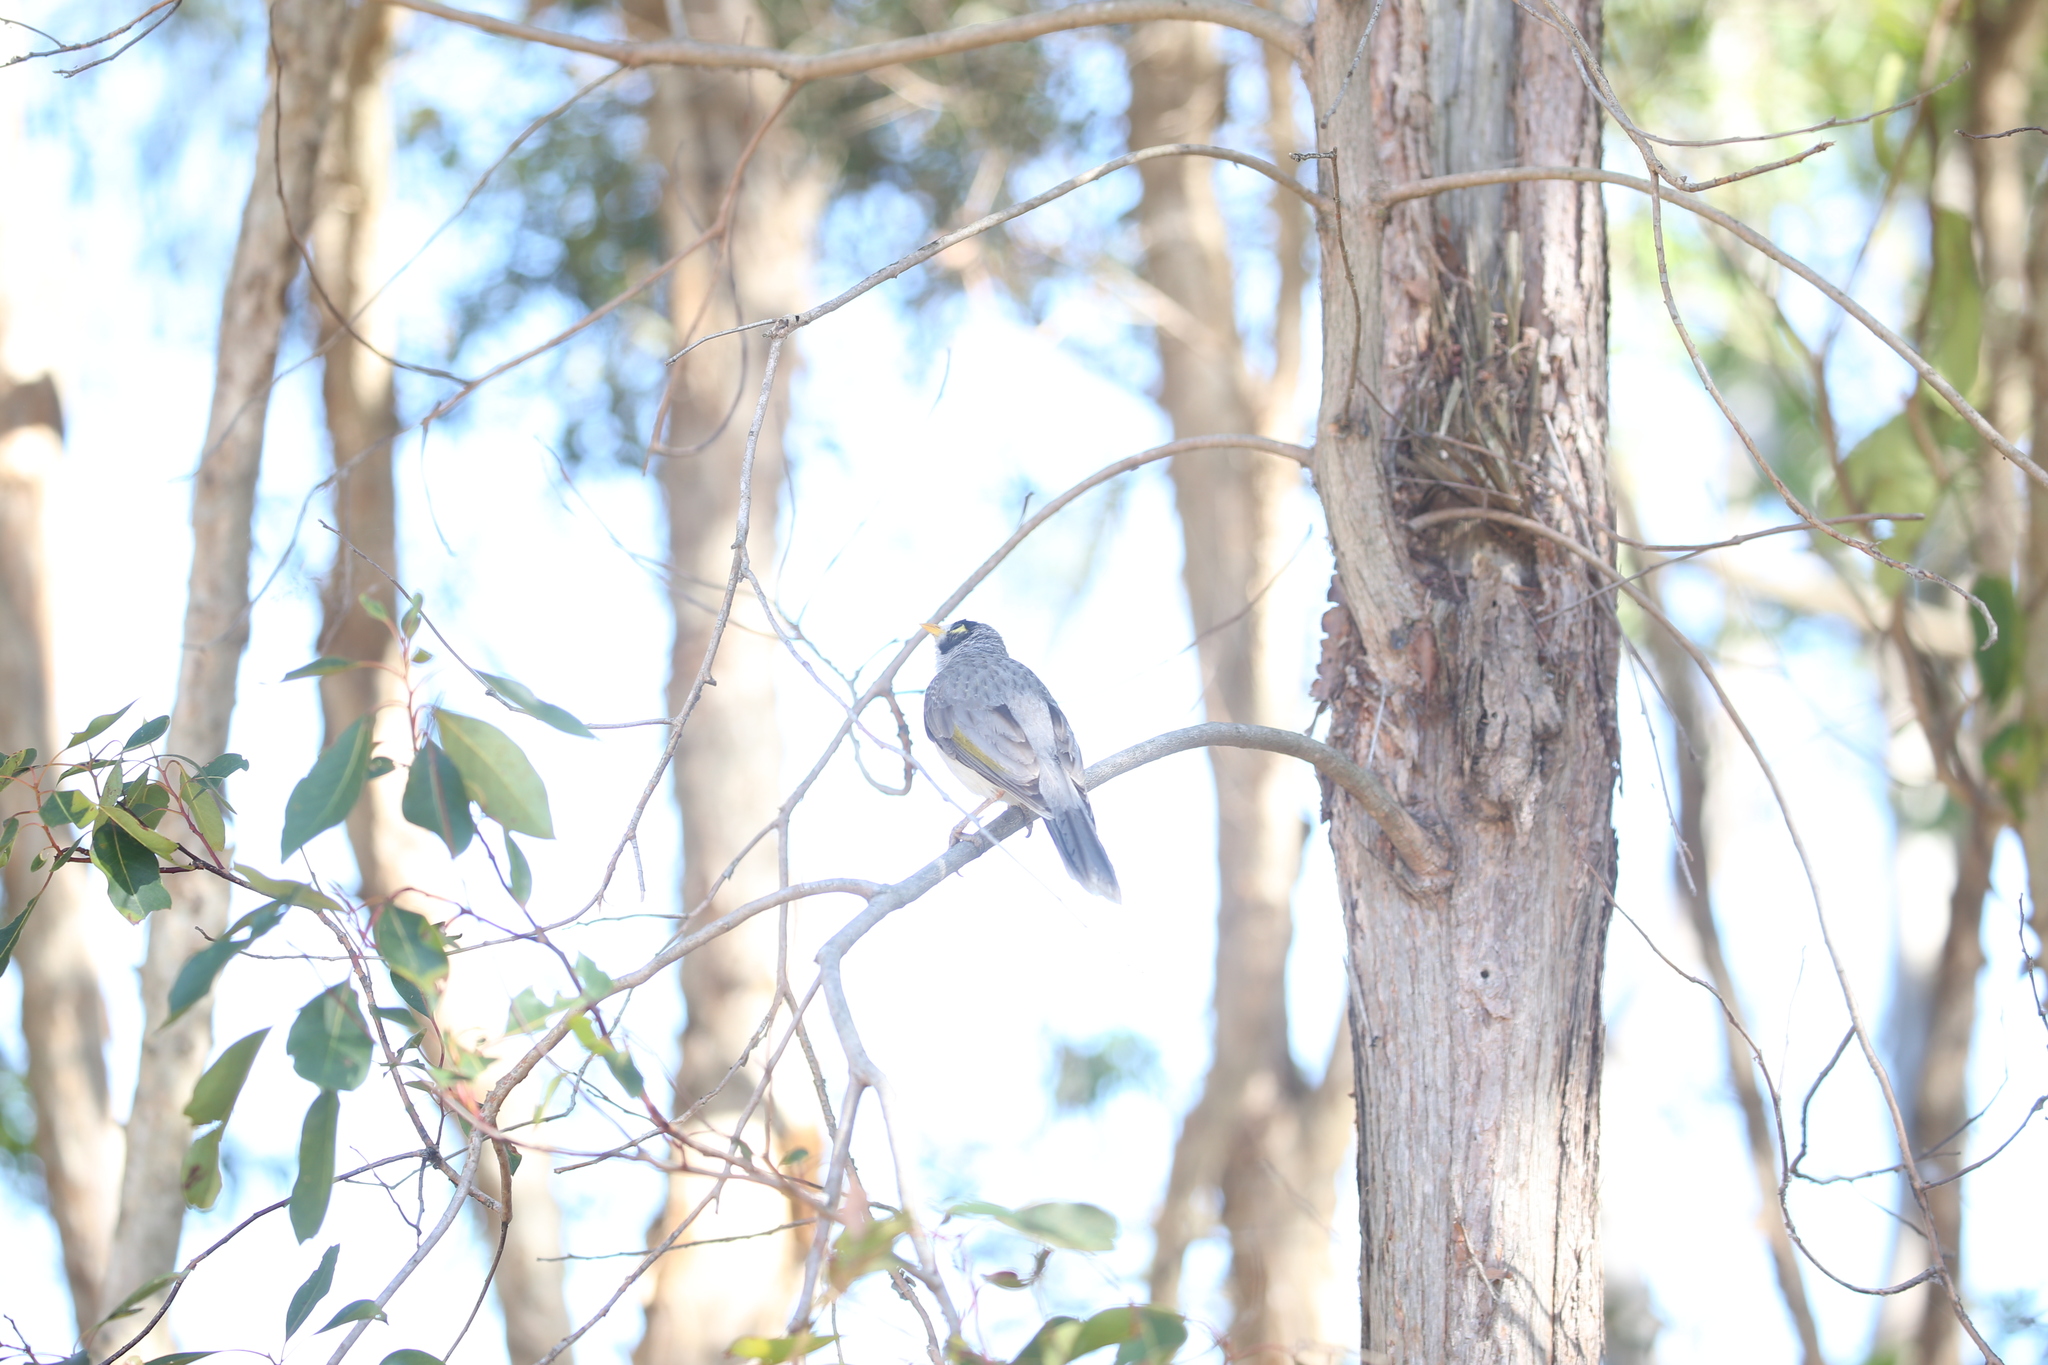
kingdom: Animalia
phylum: Chordata
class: Aves
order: Passeriformes
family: Meliphagidae
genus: Manorina
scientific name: Manorina melanocephala
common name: Noisy miner
